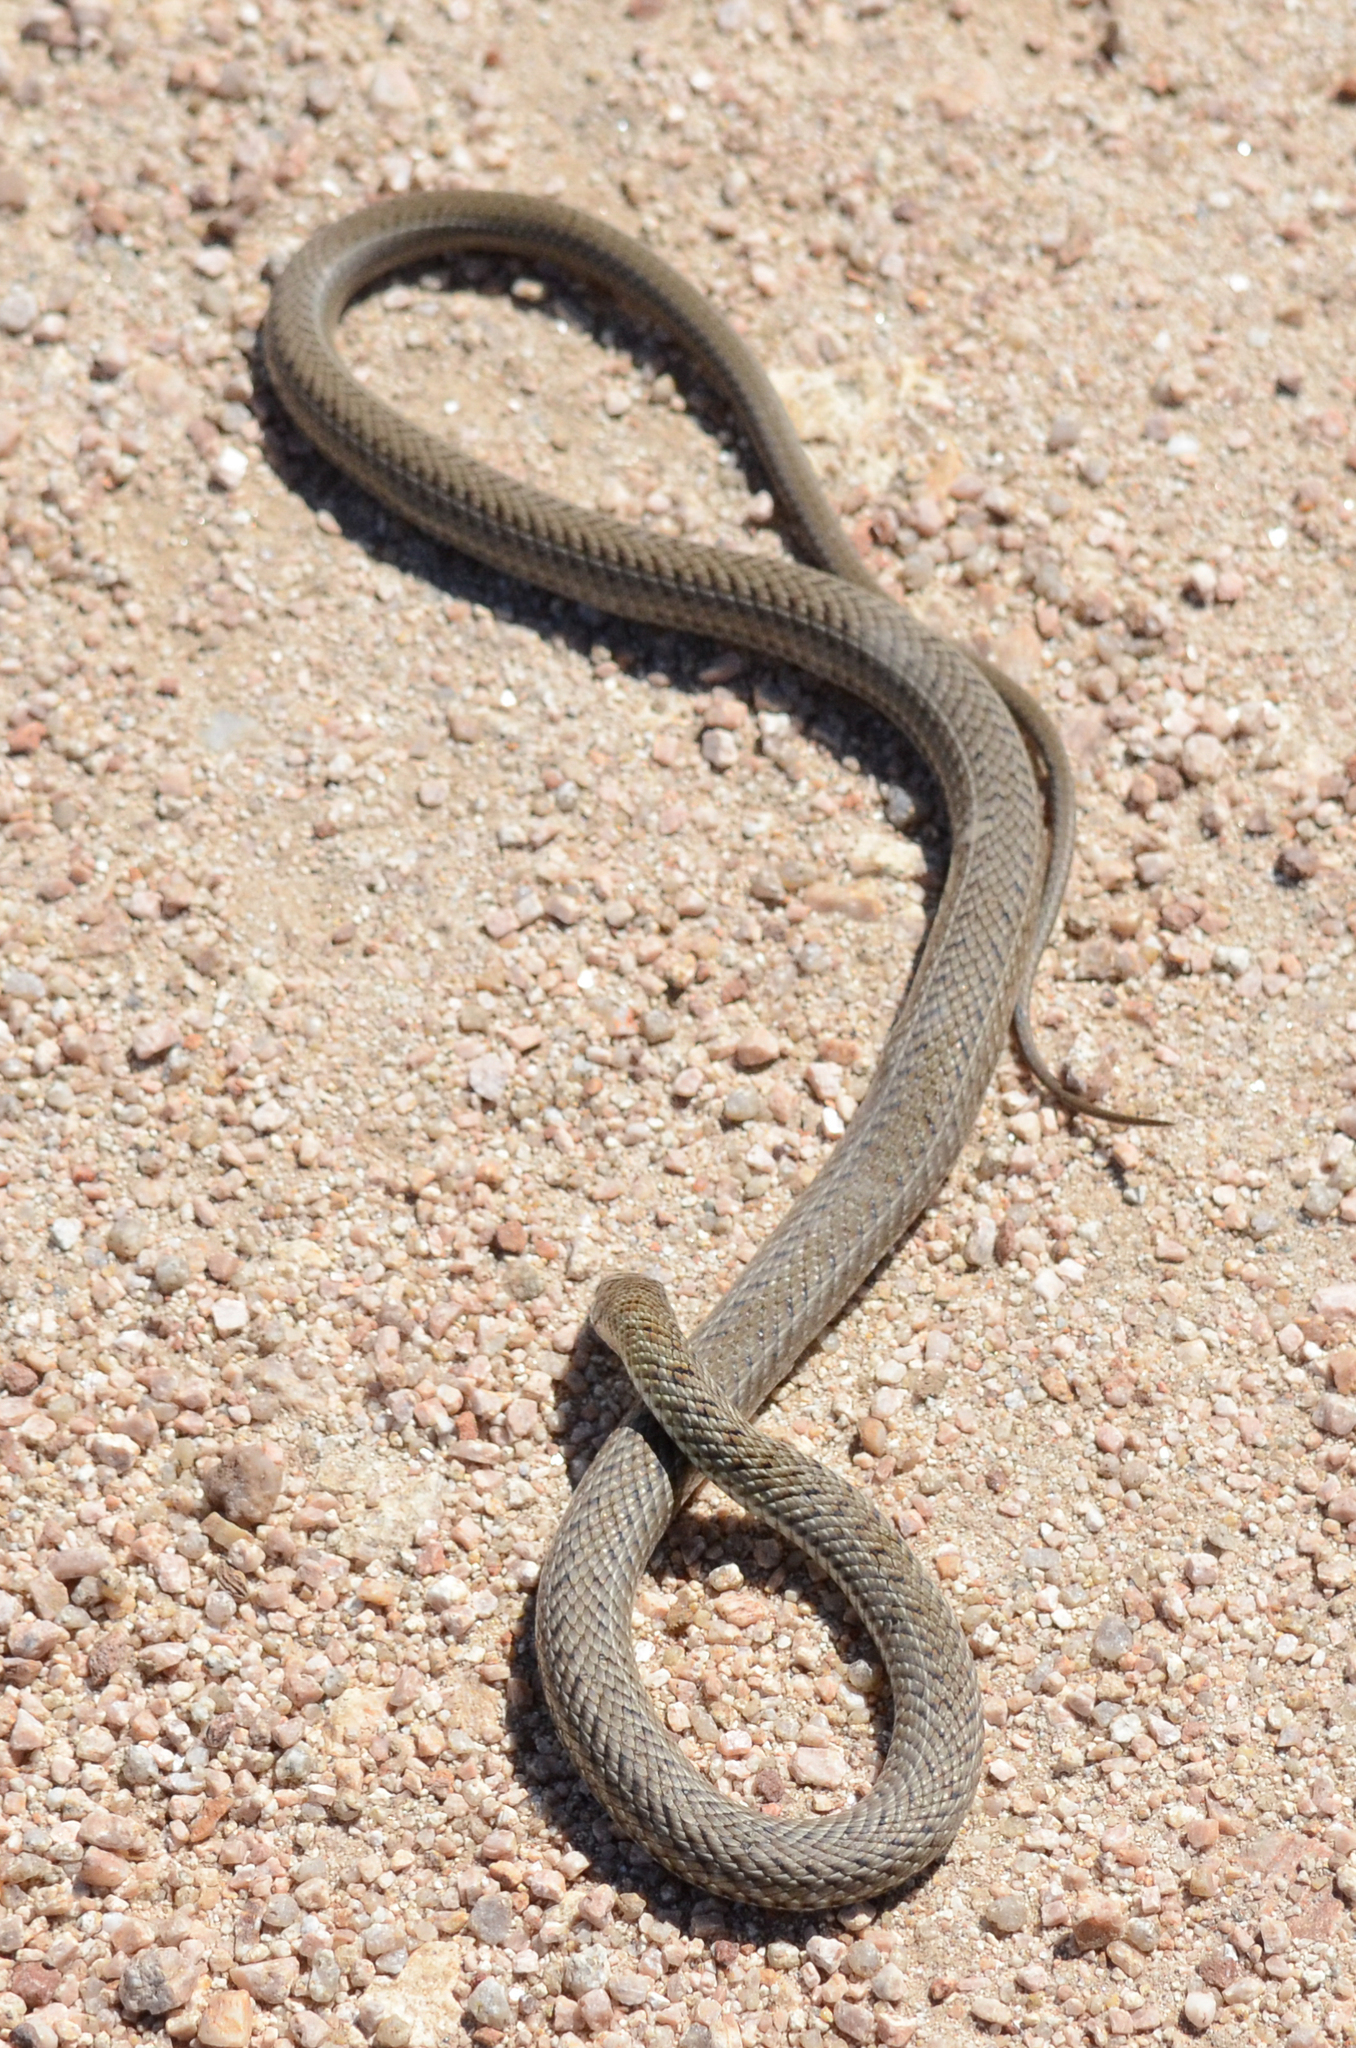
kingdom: Animalia
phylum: Chordata
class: Squamata
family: Colubridae
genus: Philodryas
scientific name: Philodryas patagoniensis
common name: Patagonia green racer
